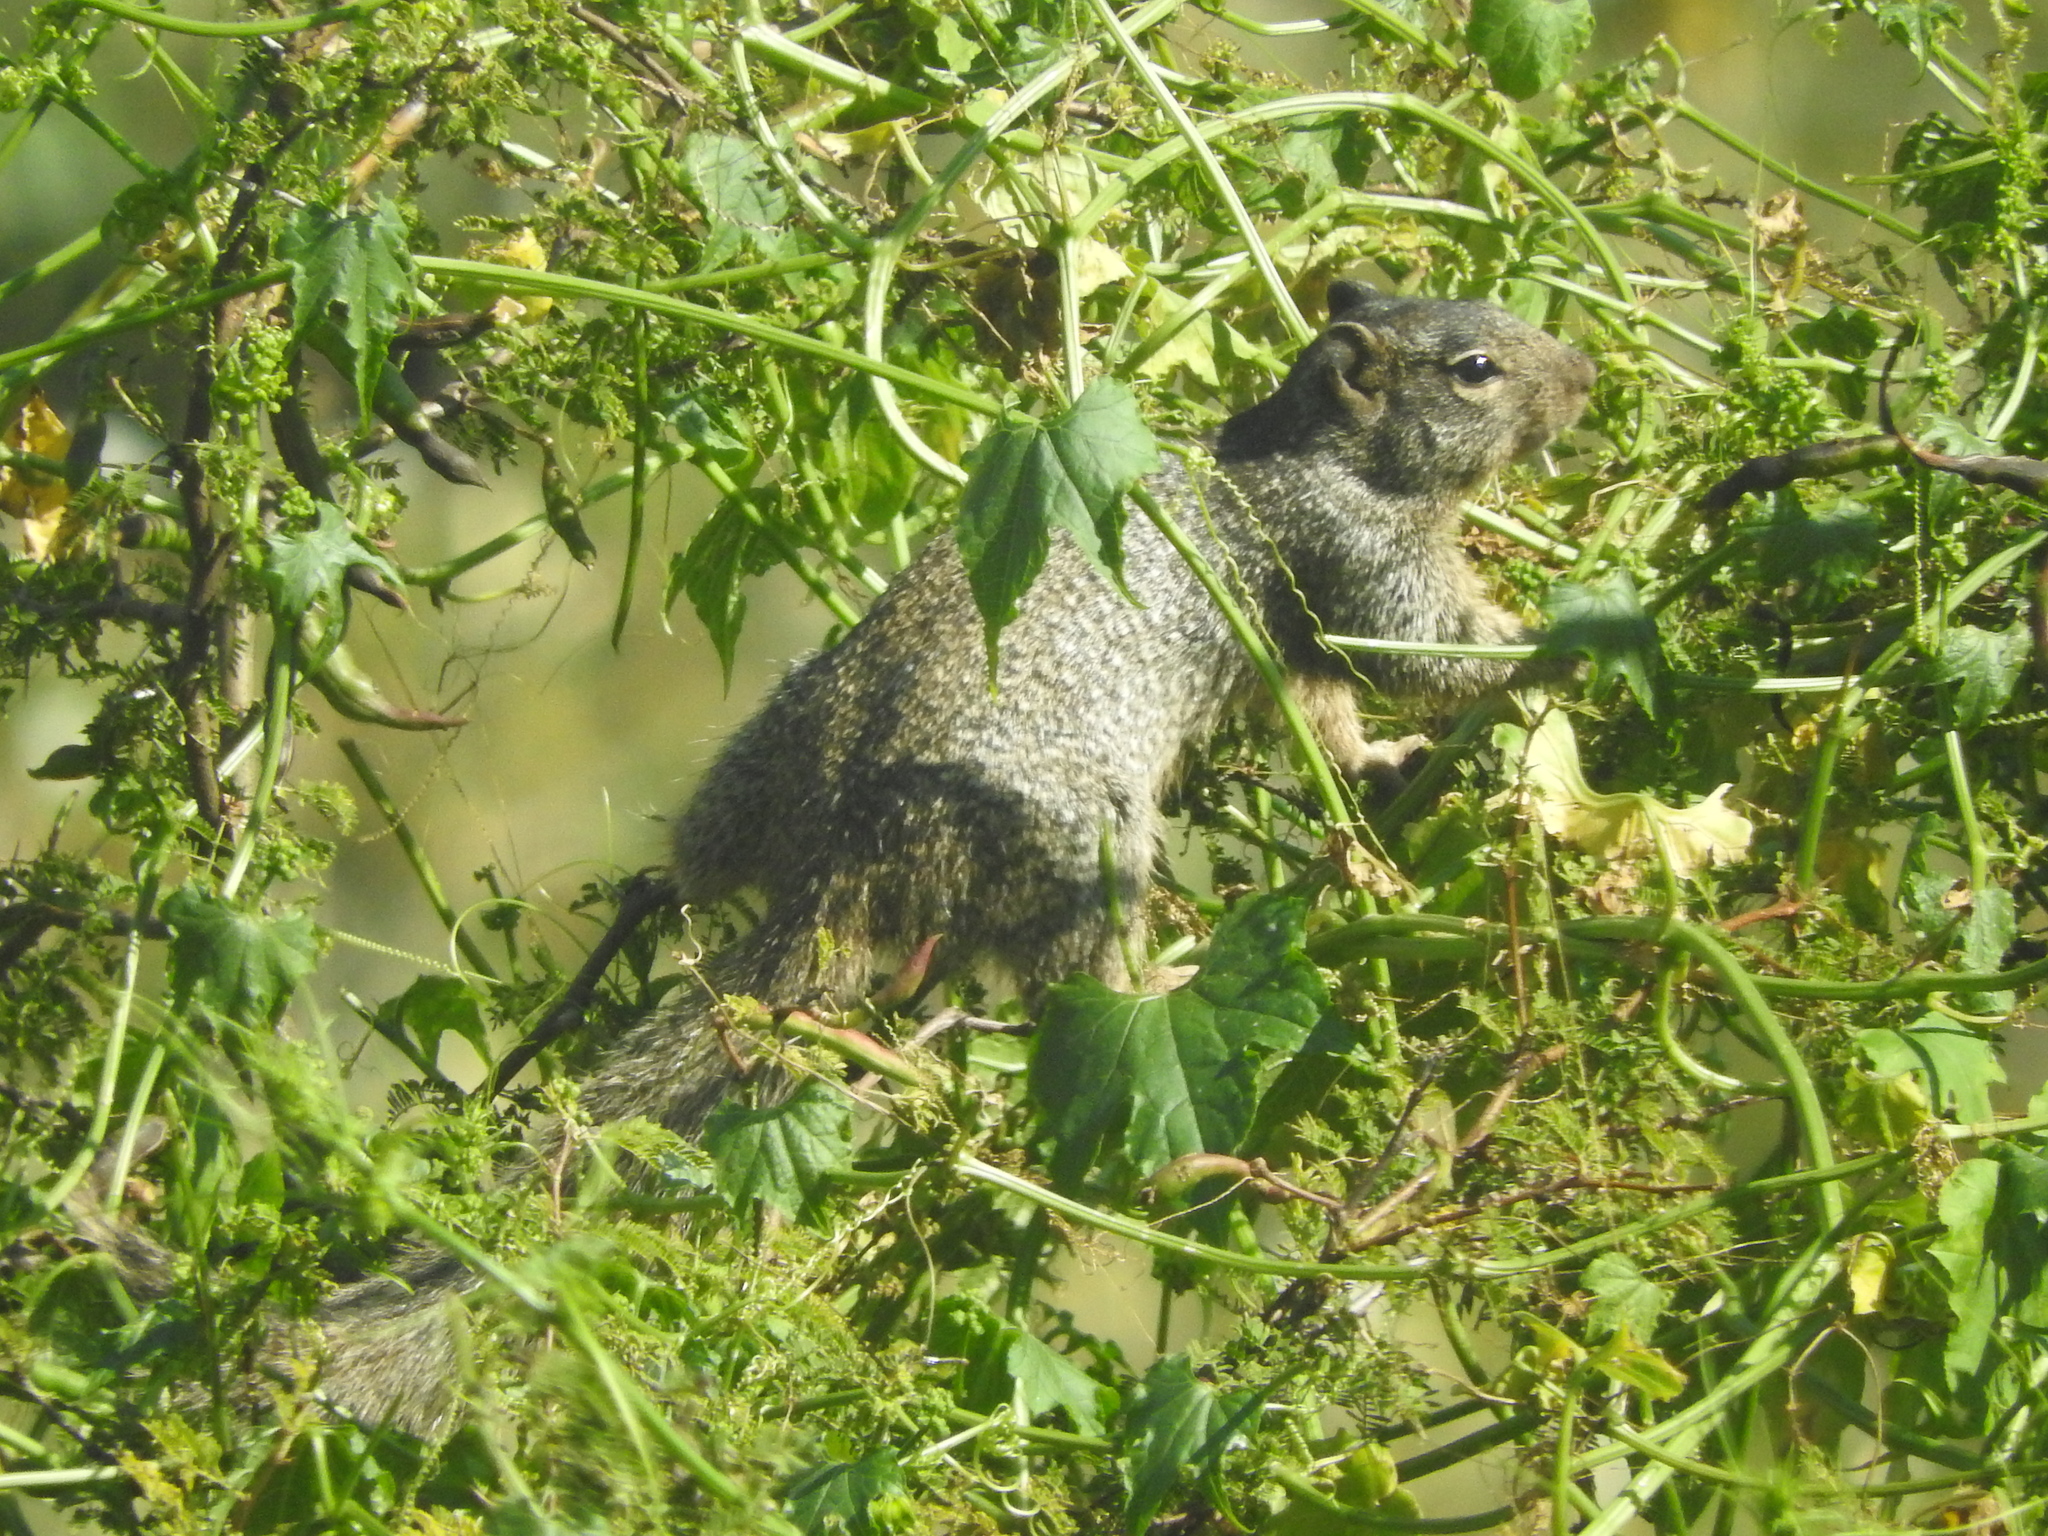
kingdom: Animalia
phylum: Chordata
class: Mammalia
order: Rodentia
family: Sciuridae
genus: Otospermophilus
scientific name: Otospermophilus variegatus
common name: Rock squirrel
